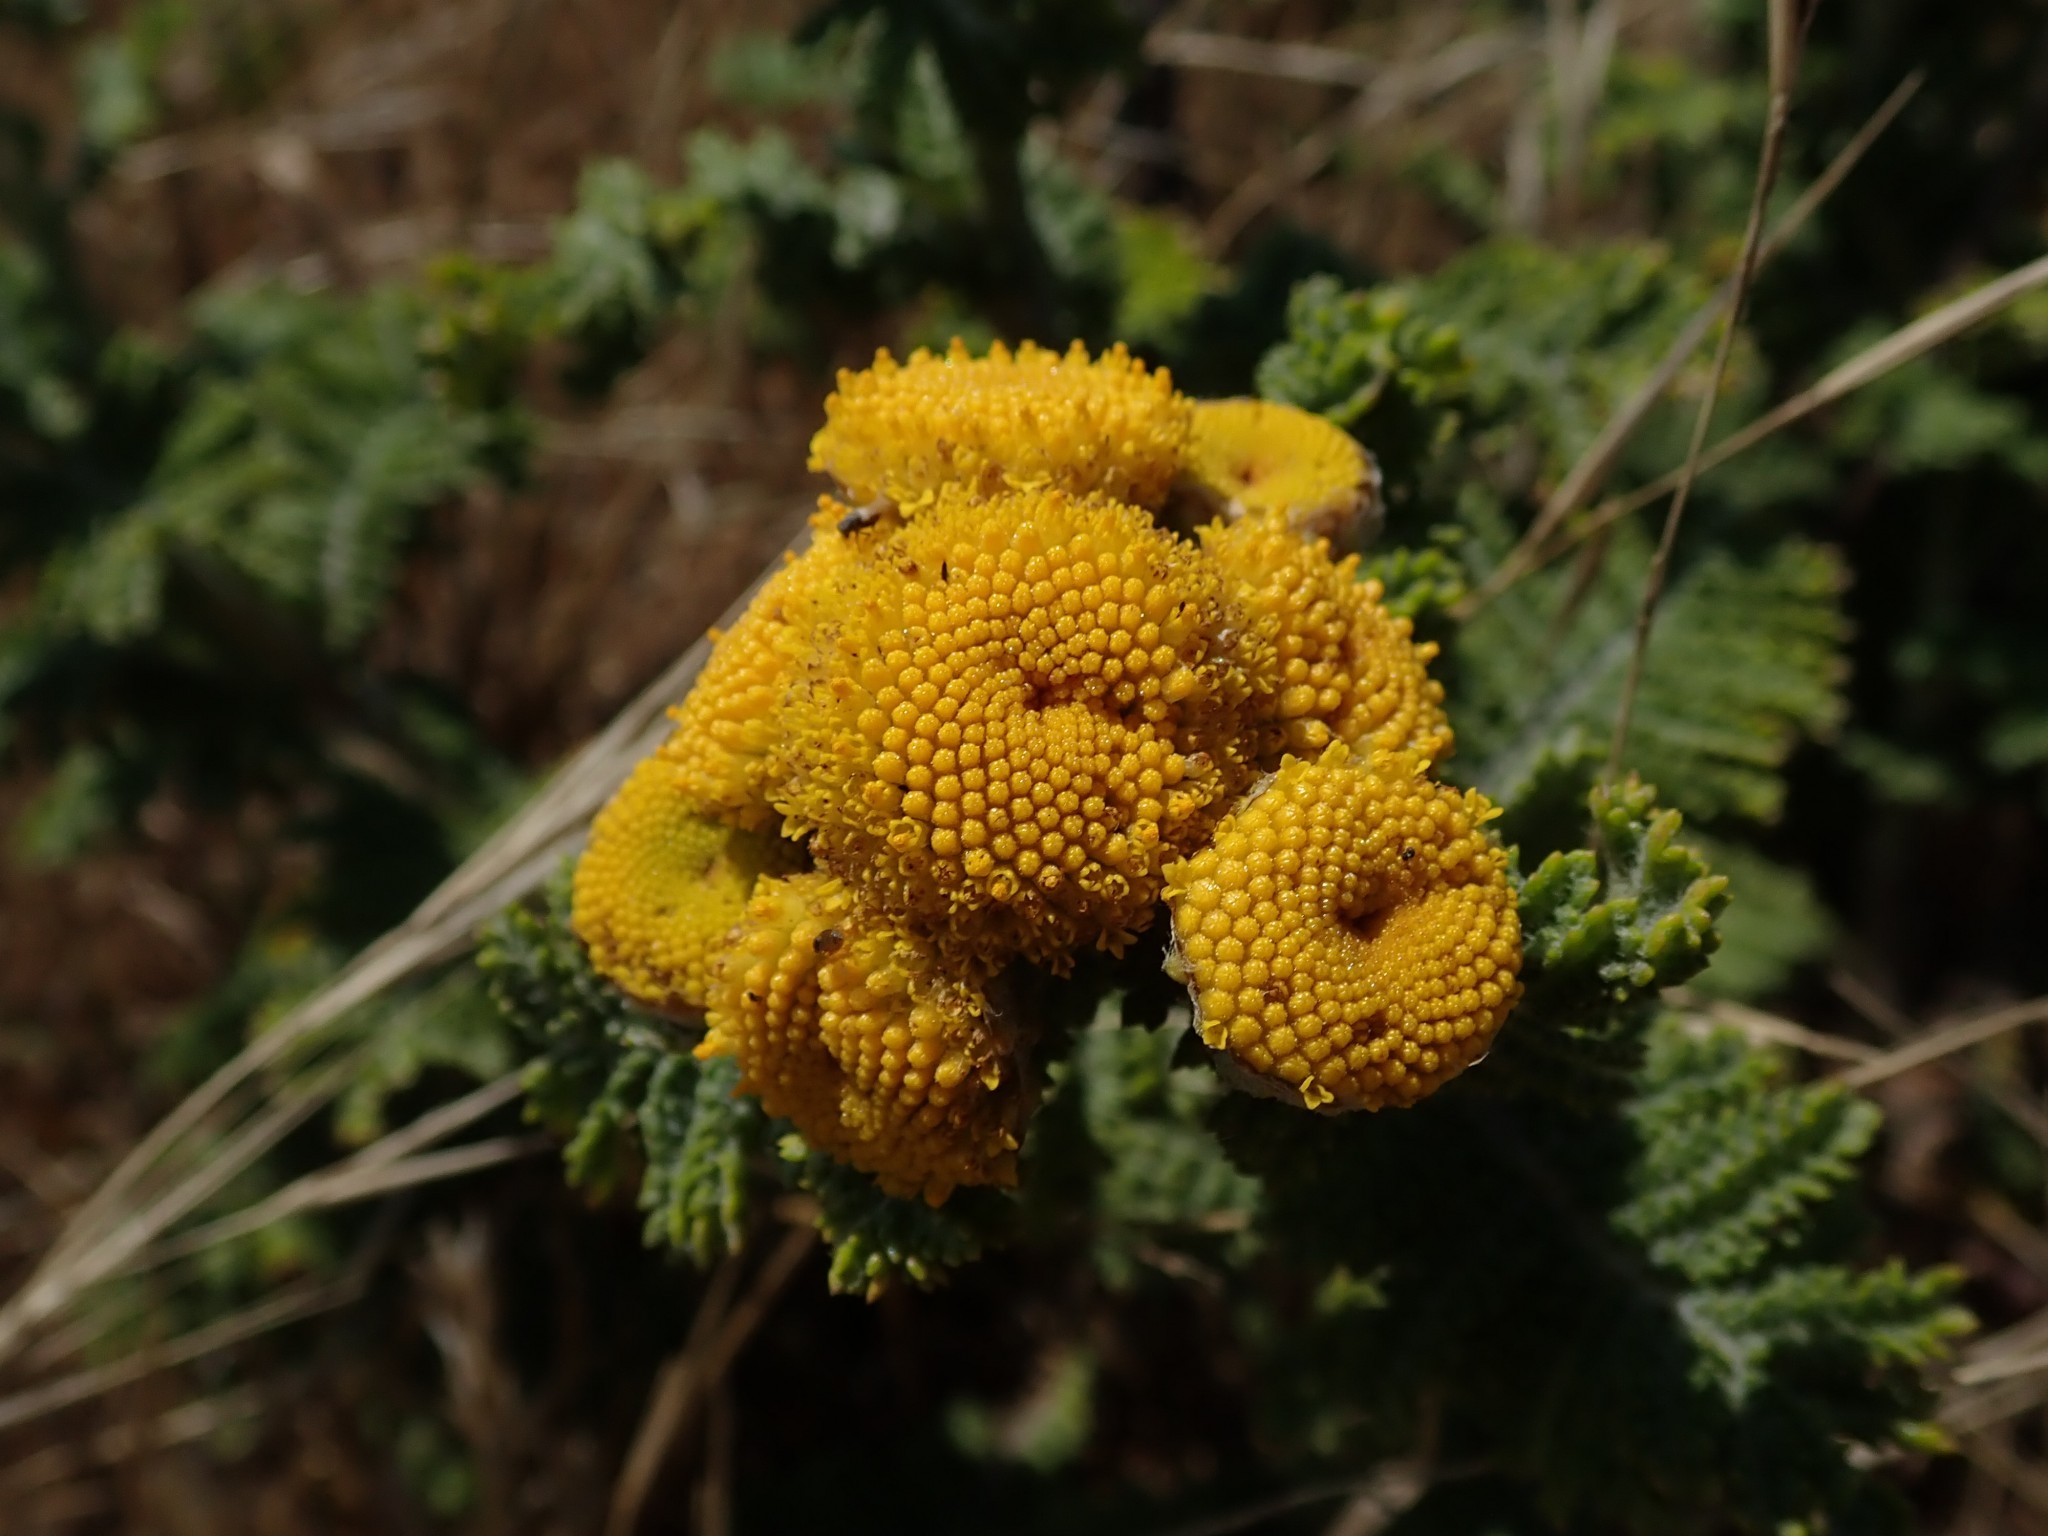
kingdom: Plantae
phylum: Tracheophyta
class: Magnoliopsida
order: Asterales
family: Asteraceae
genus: Tanacetum
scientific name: Tanacetum bipinnatum
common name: Dwarf tansy
